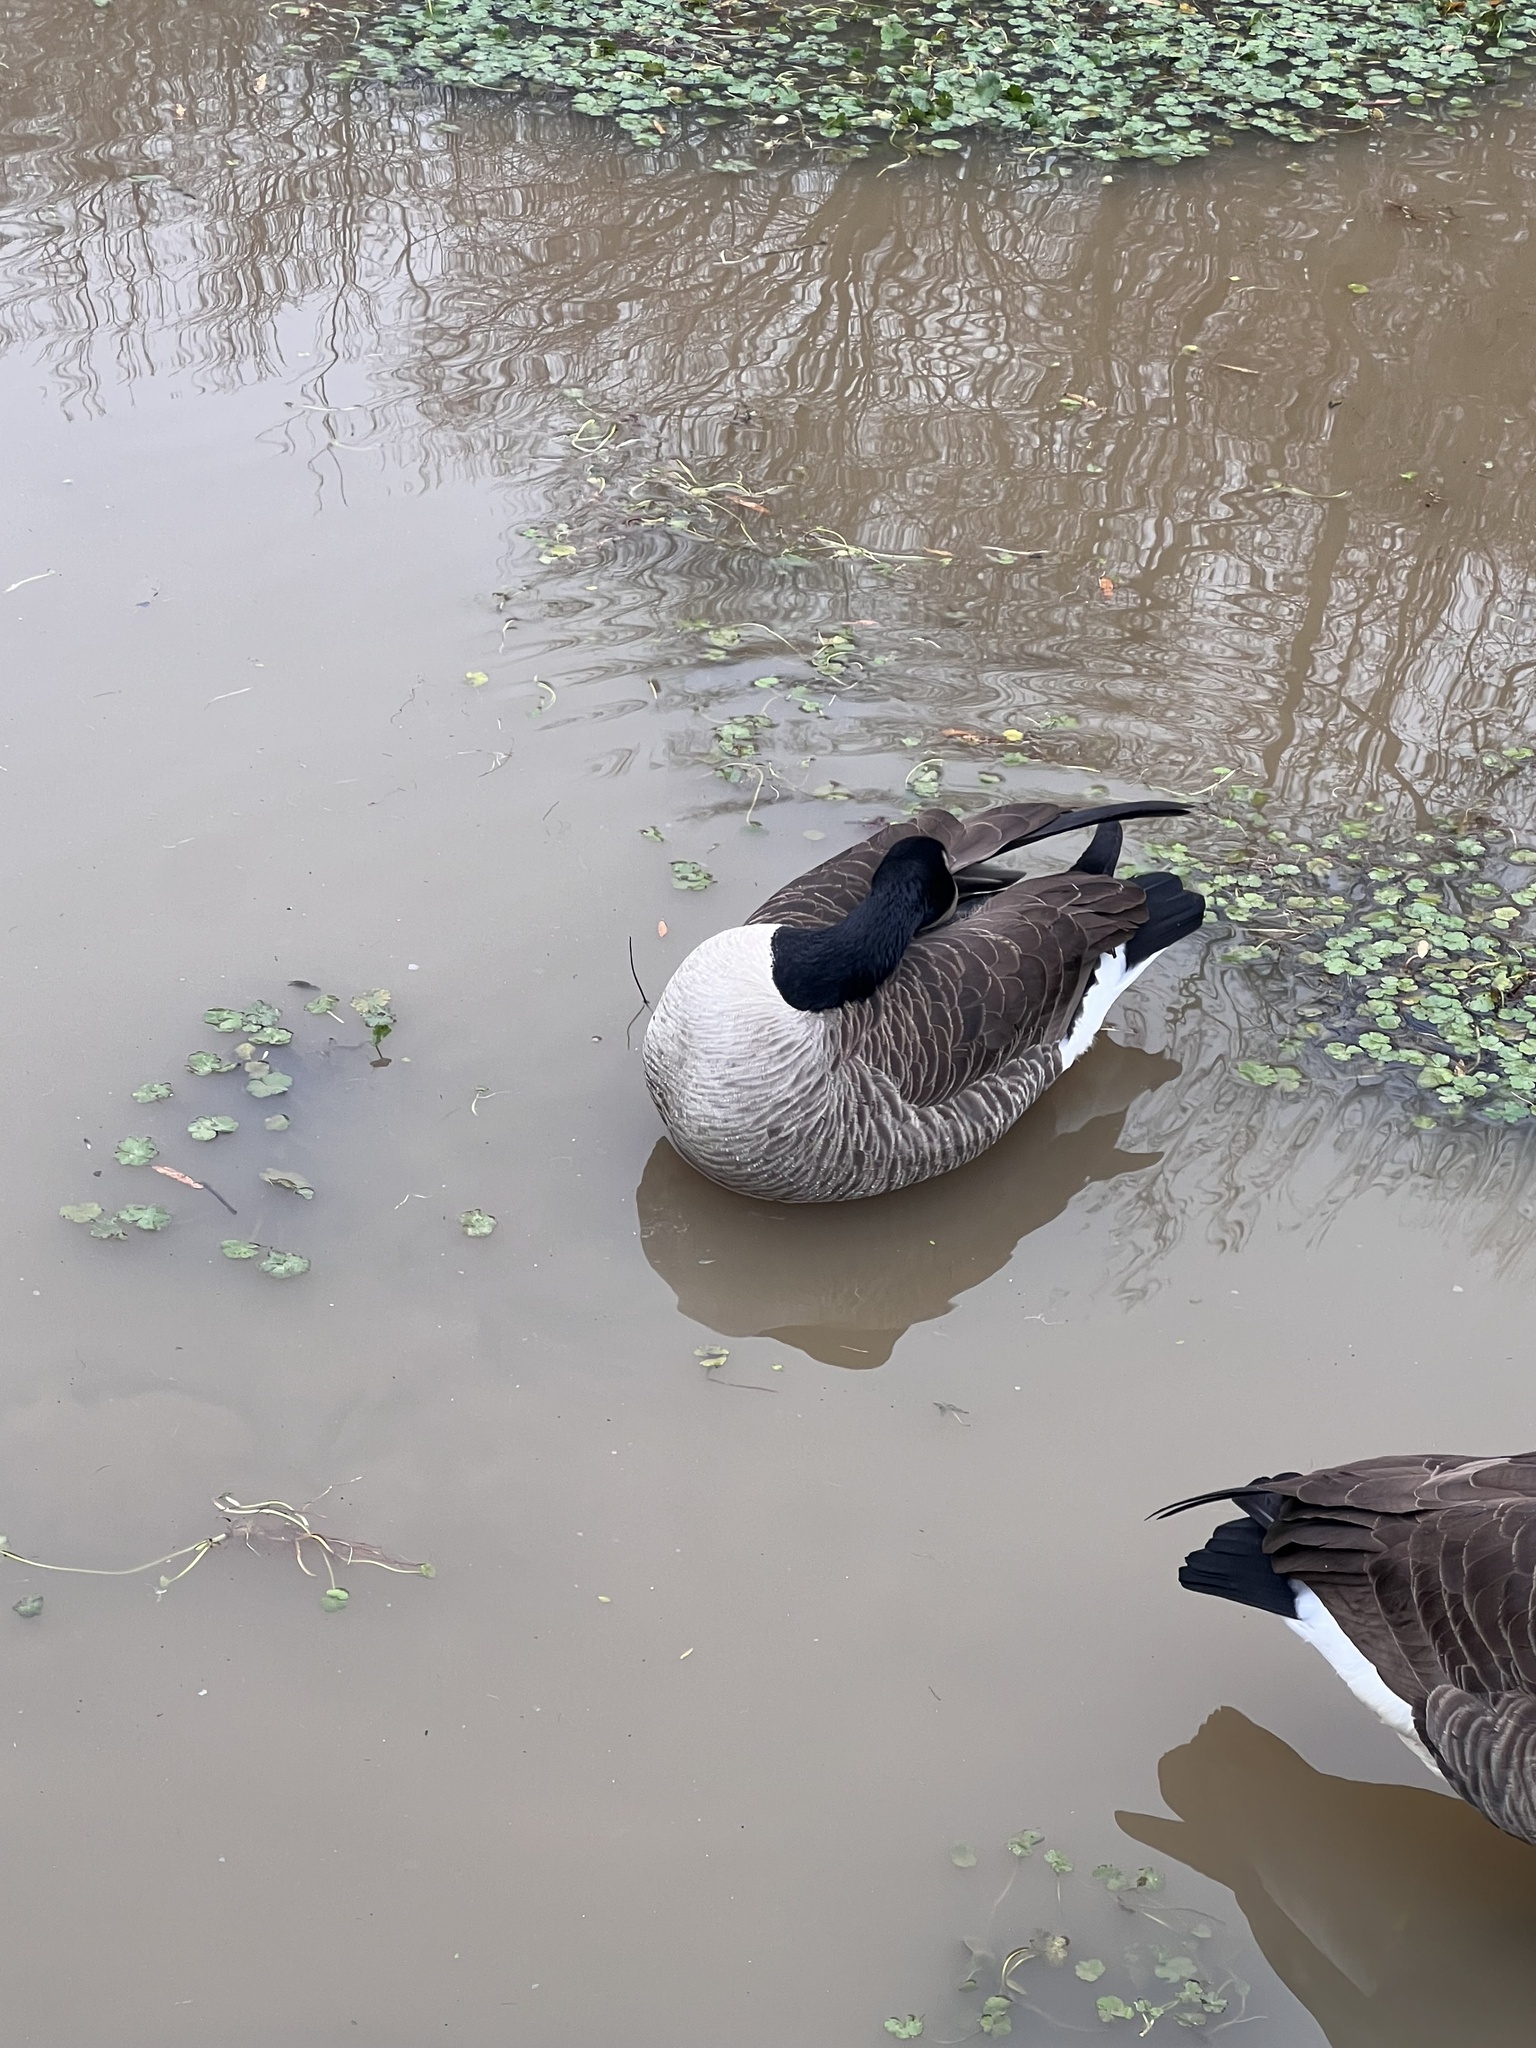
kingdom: Animalia
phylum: Chordata
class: Aves
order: Anseriformes
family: Anatidae
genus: Branta
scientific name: Branta canadensis
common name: Canada goose
